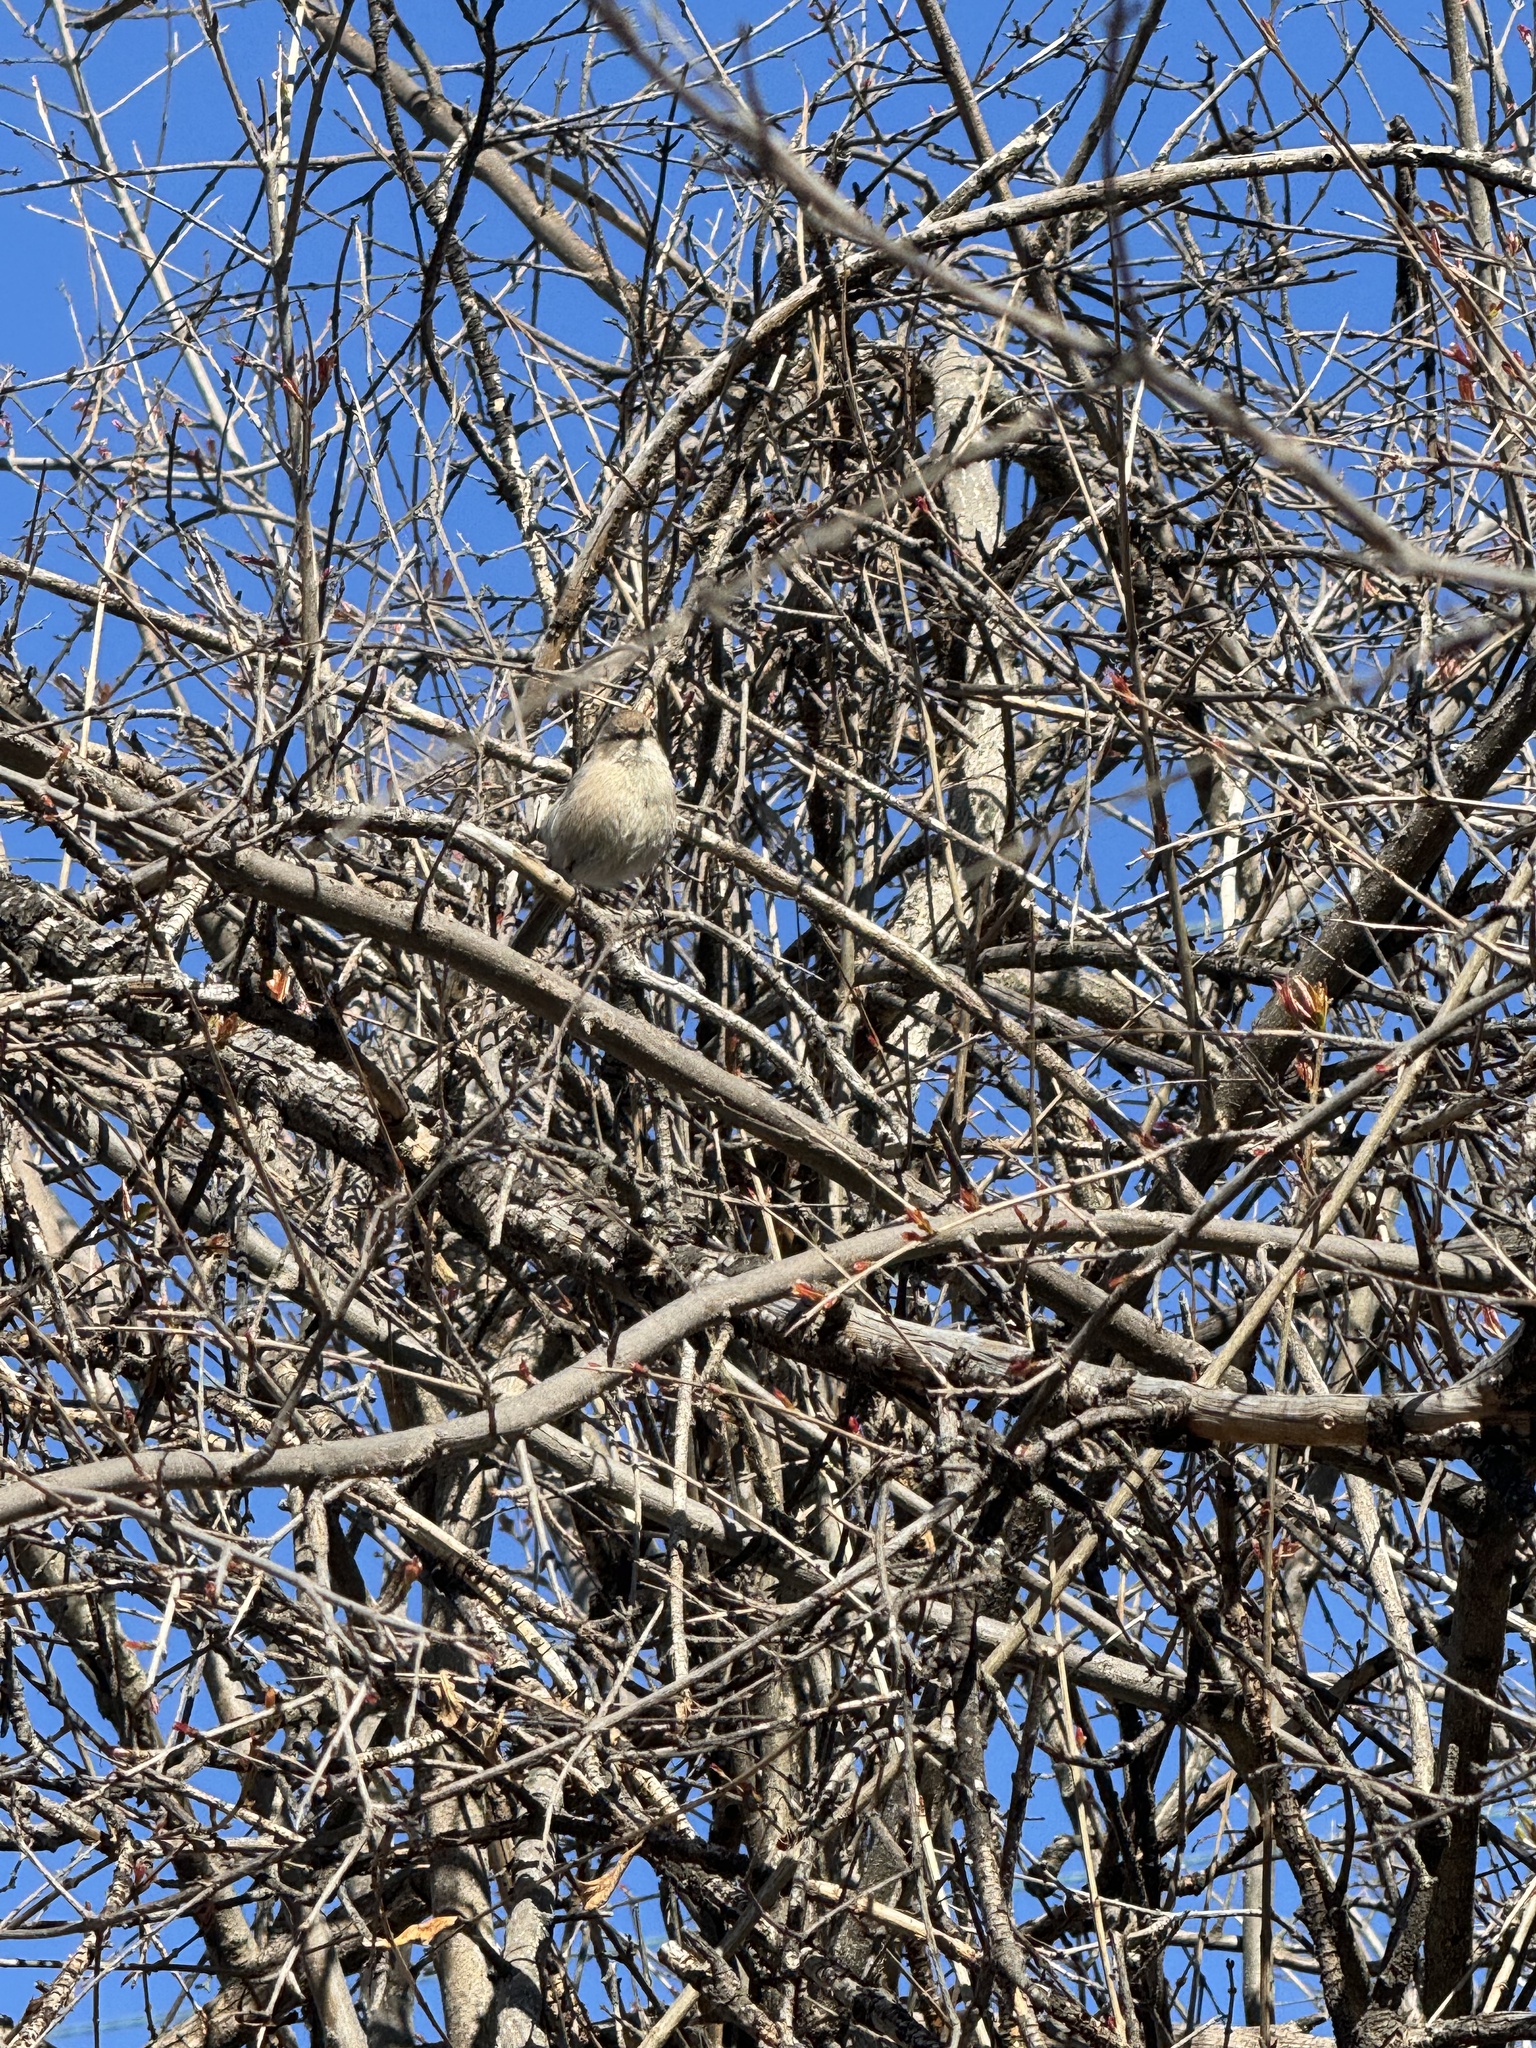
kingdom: Animalia
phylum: Chordata
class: Aves
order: Passeriformes
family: Aegithalidae
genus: Psaltriparus
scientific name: Psaltriparus minimus
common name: American bushtit
